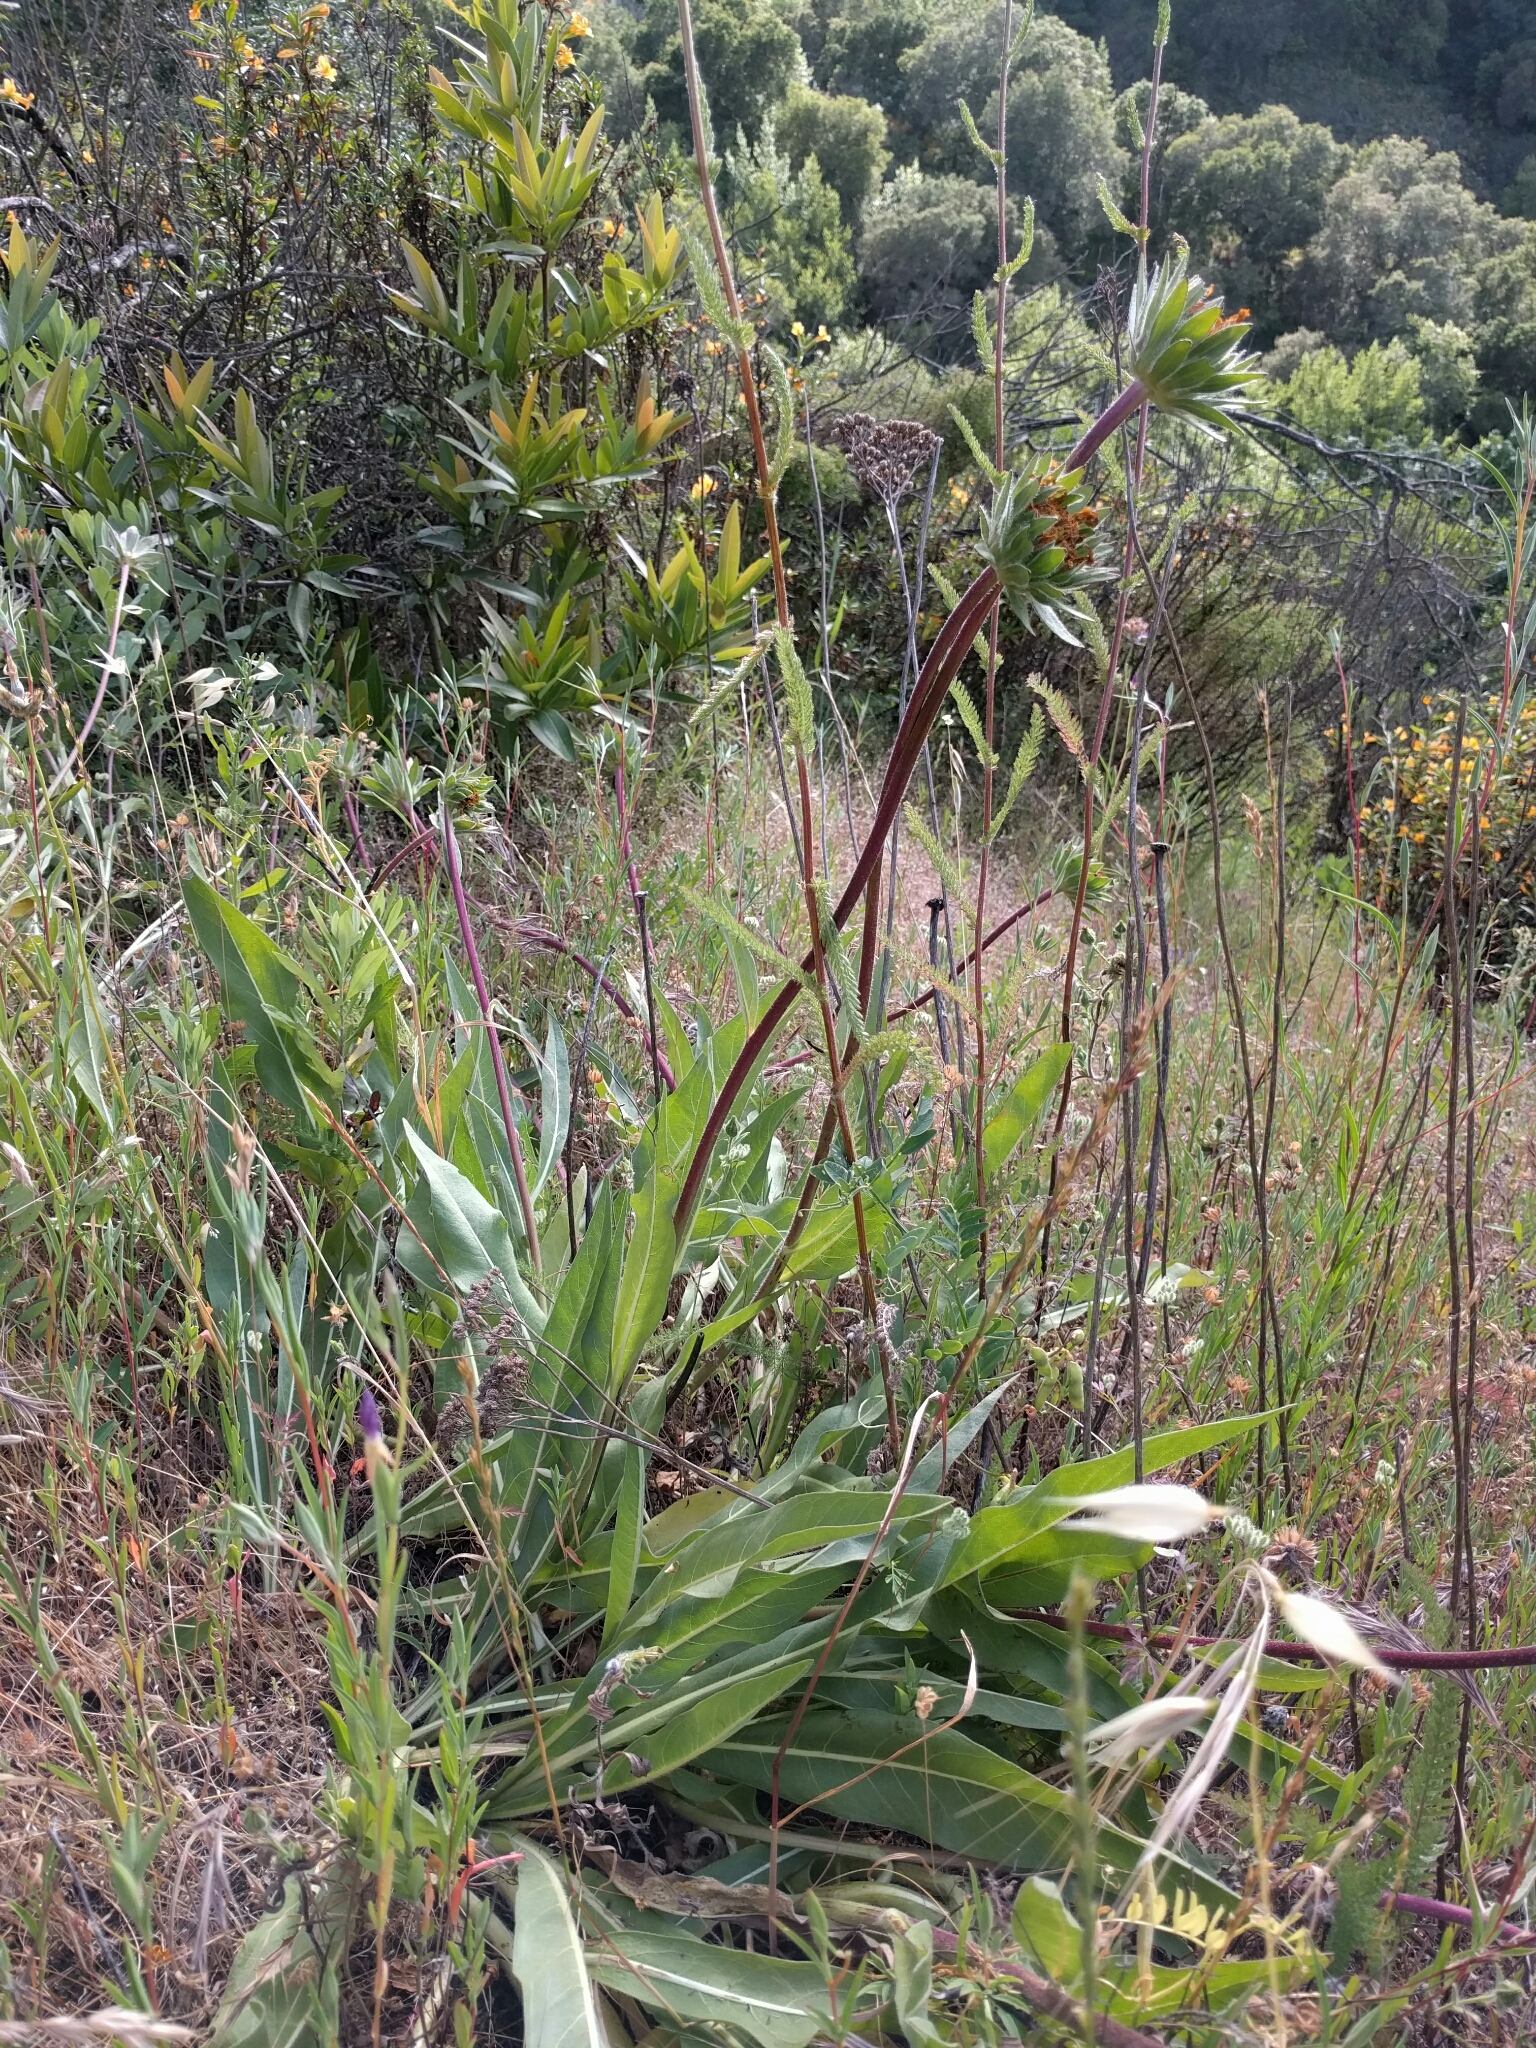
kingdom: Plantae
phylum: Tracheophyta
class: Magnoliopsida
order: Asterales
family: Asteraceae
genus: Wyethia
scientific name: Wyethia angustifolia
